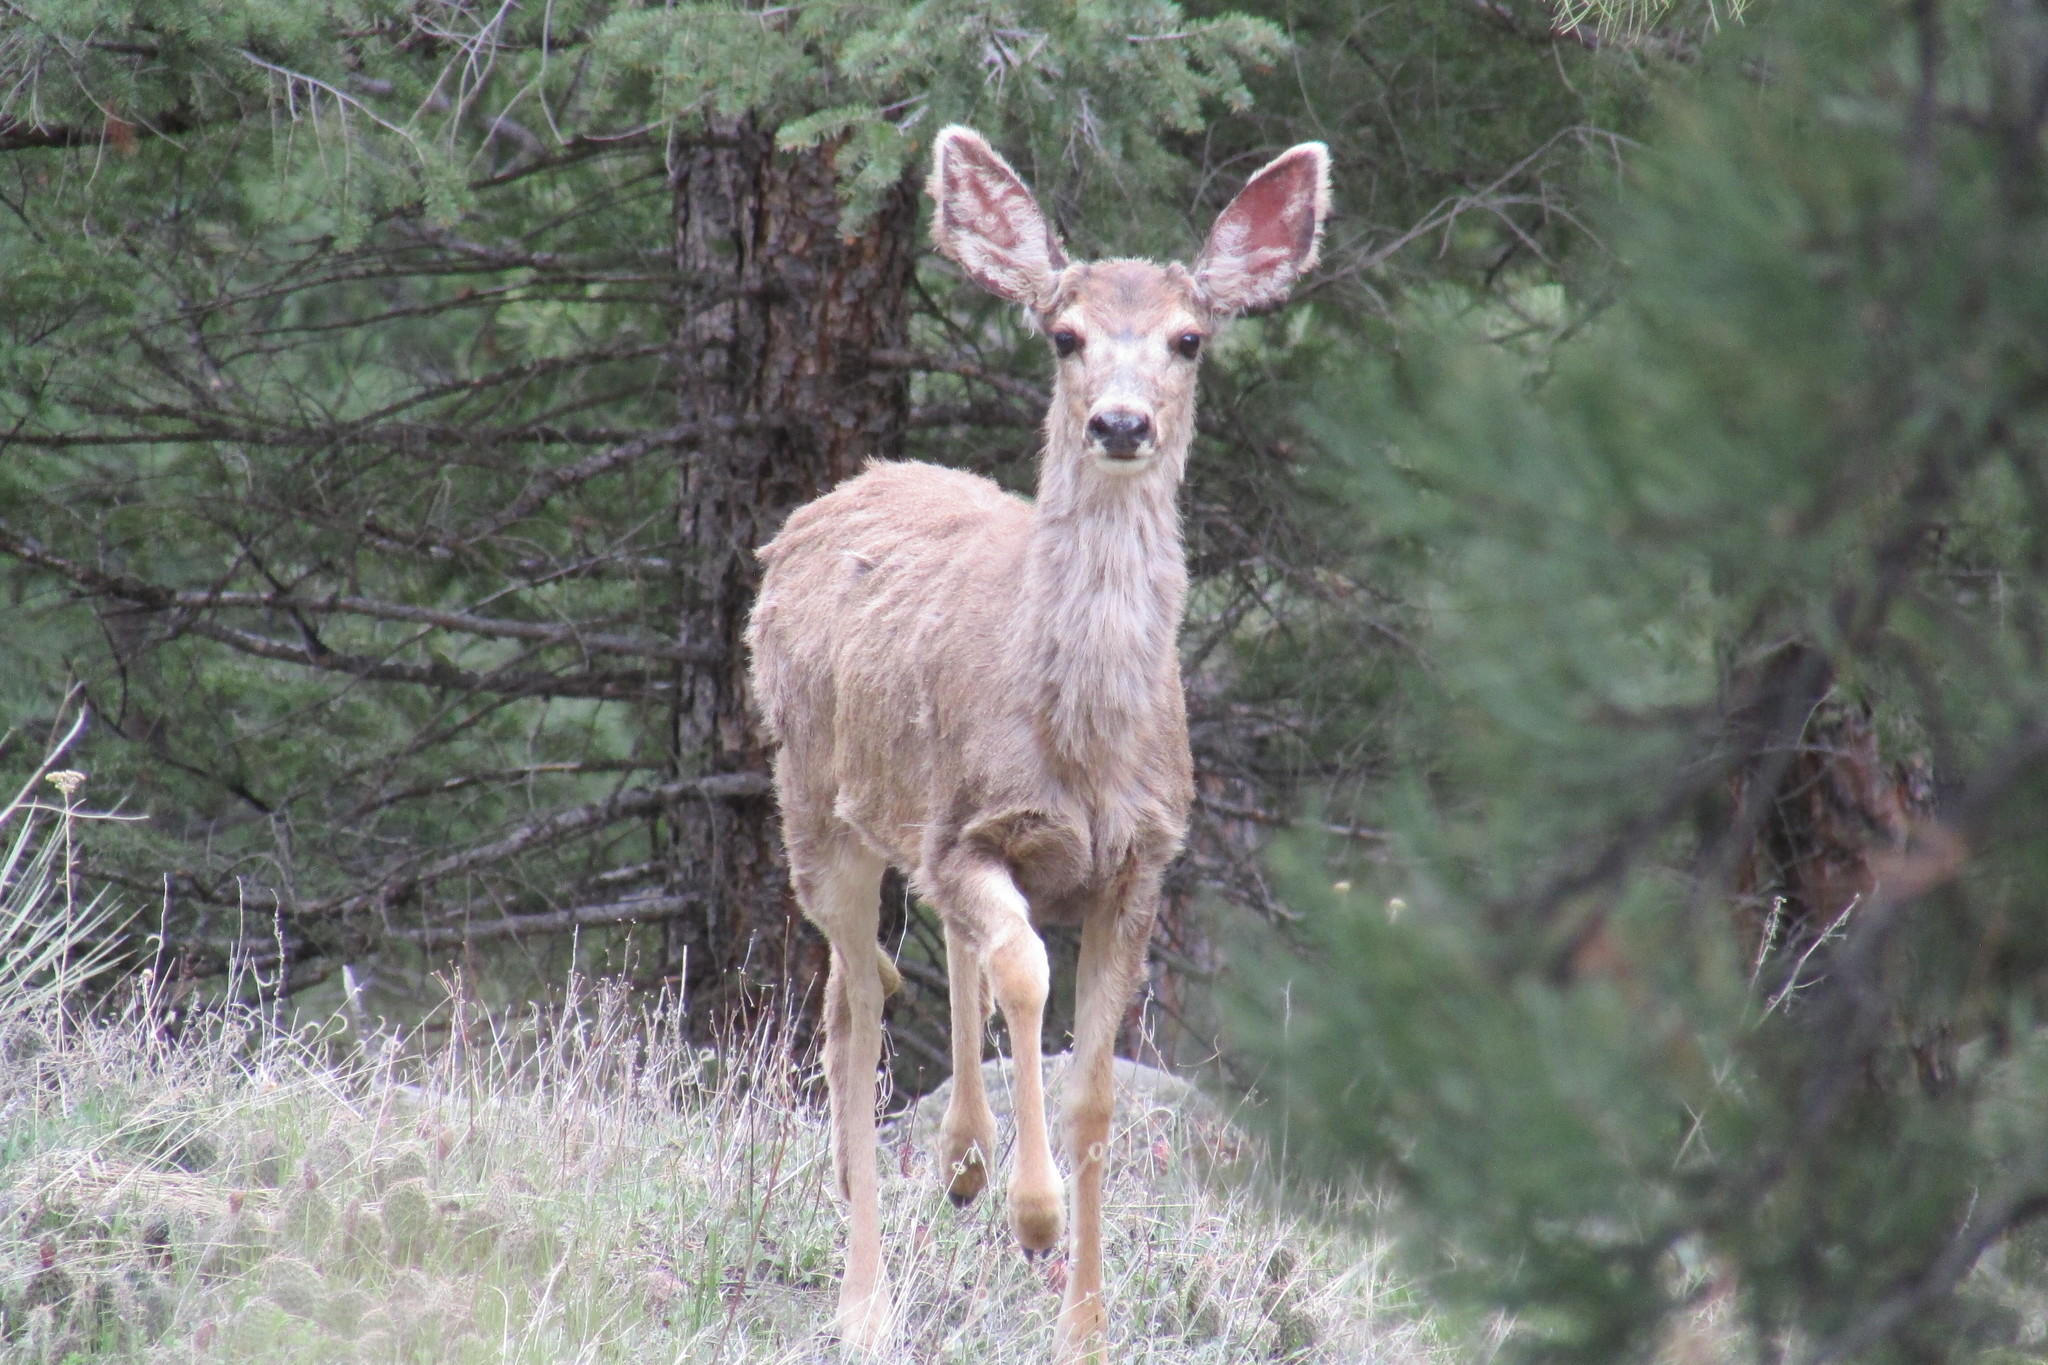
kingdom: Animalia
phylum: Chordata
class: Mammalia
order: Artiodactyla
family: Cervidae
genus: Odocoileus
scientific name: Odocoileus hemionus
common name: Mule deer
